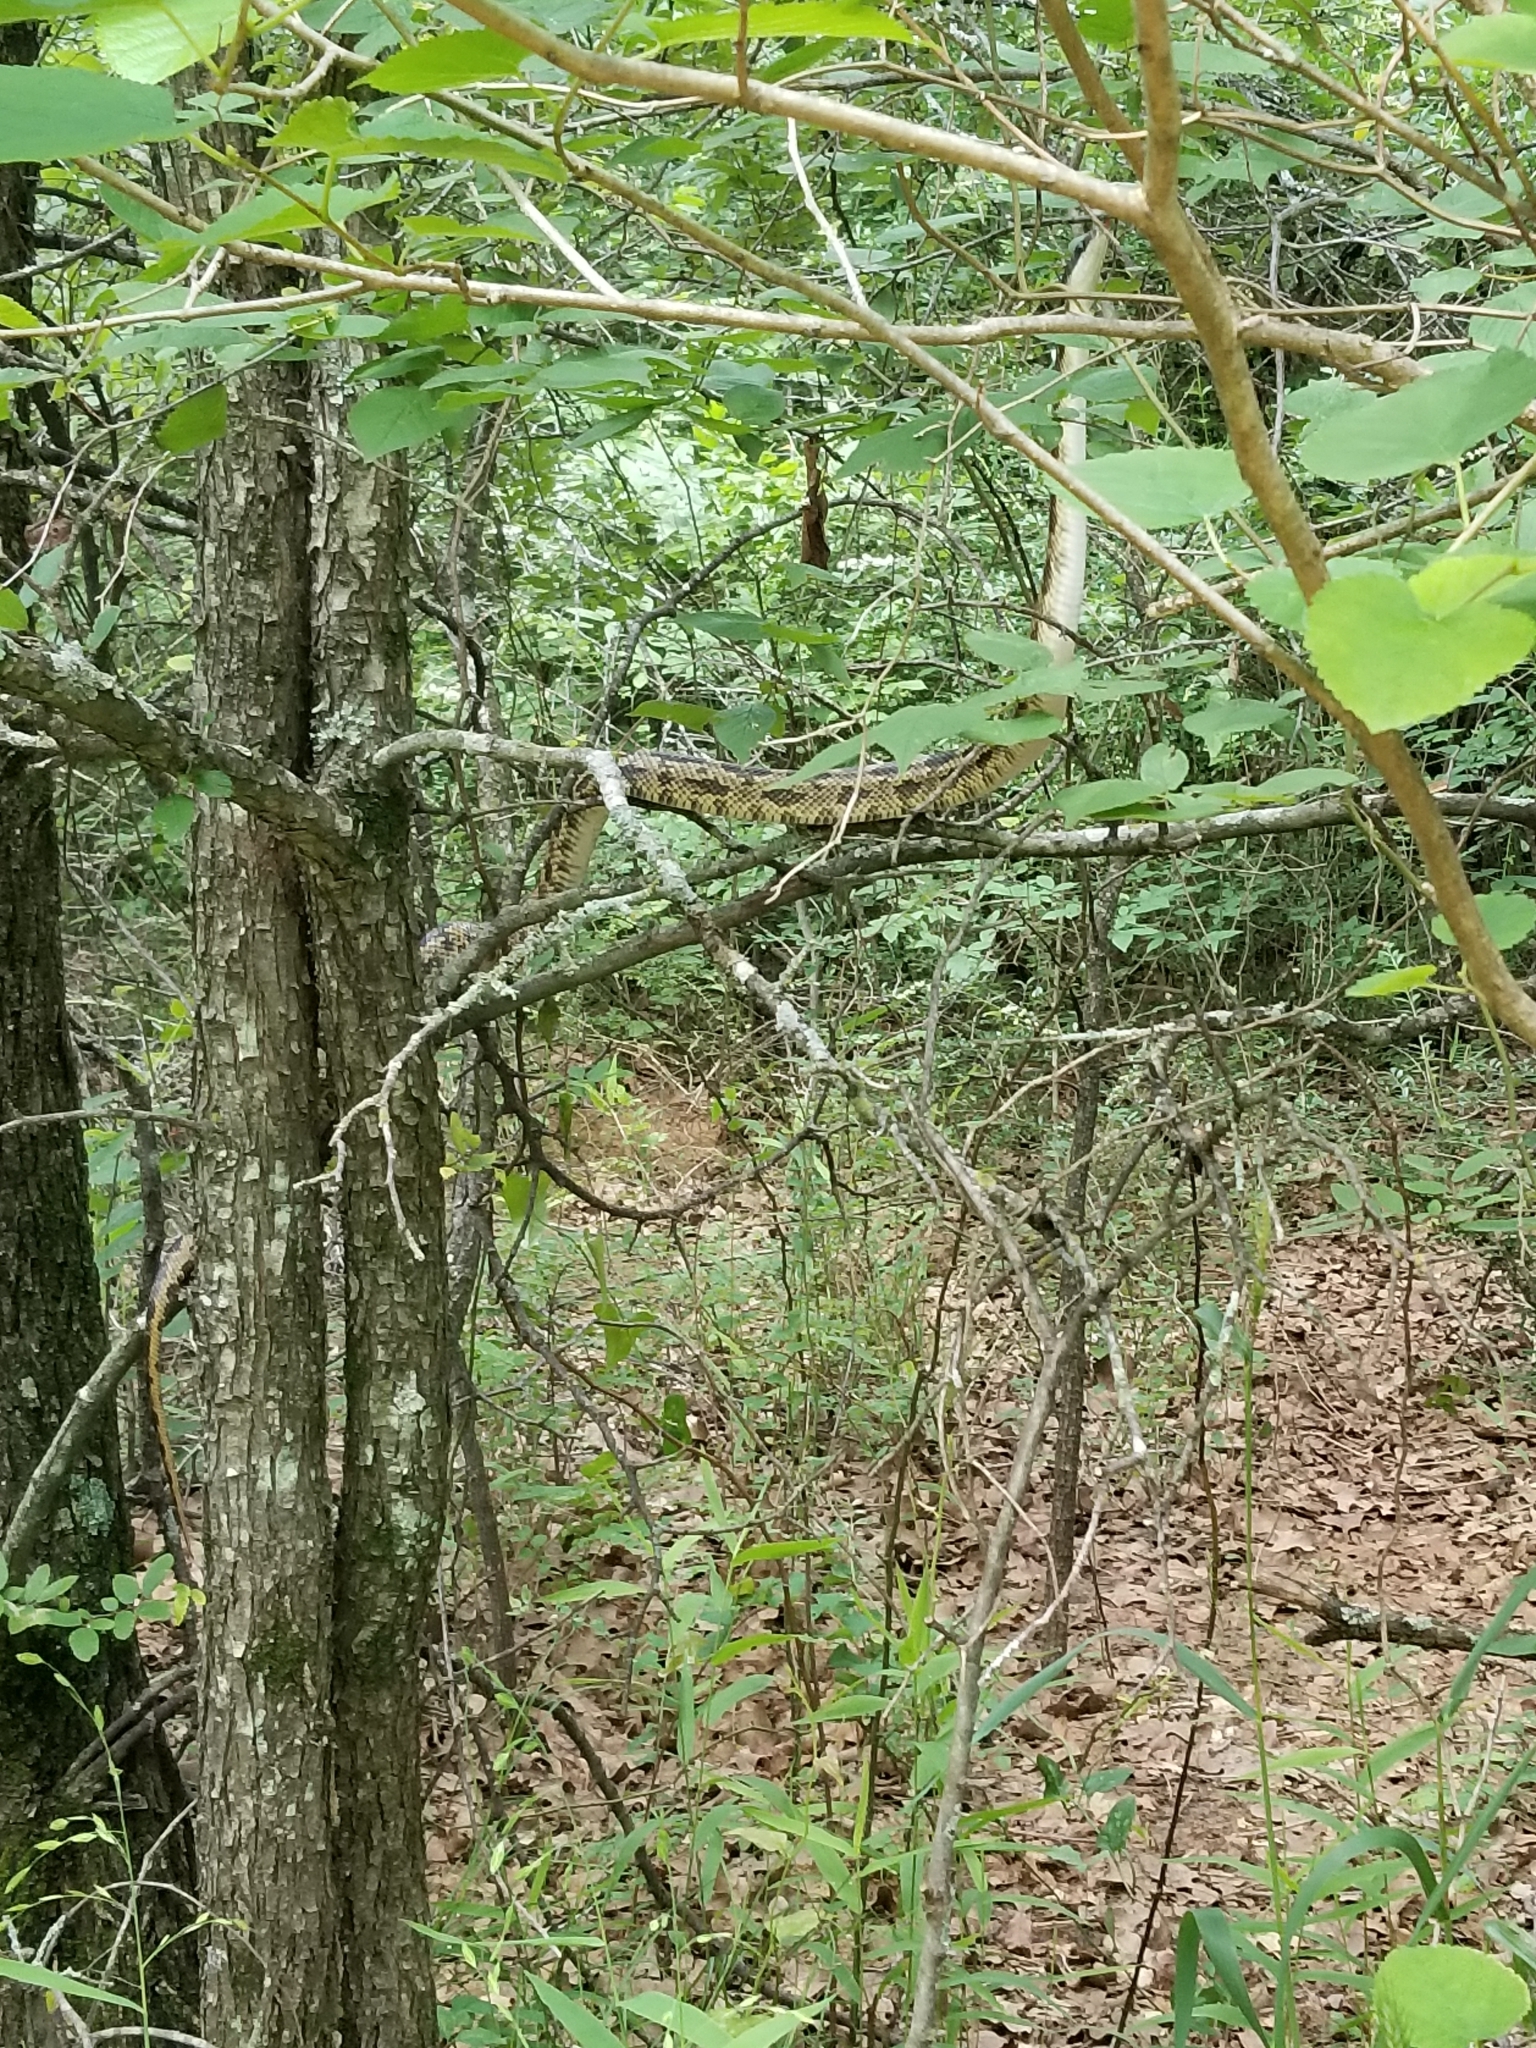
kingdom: Animalia
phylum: Chordata
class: Squamata
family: Colubridae
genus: Pantherophis
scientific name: Pantherophis obsoletus
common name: Black rat snake
